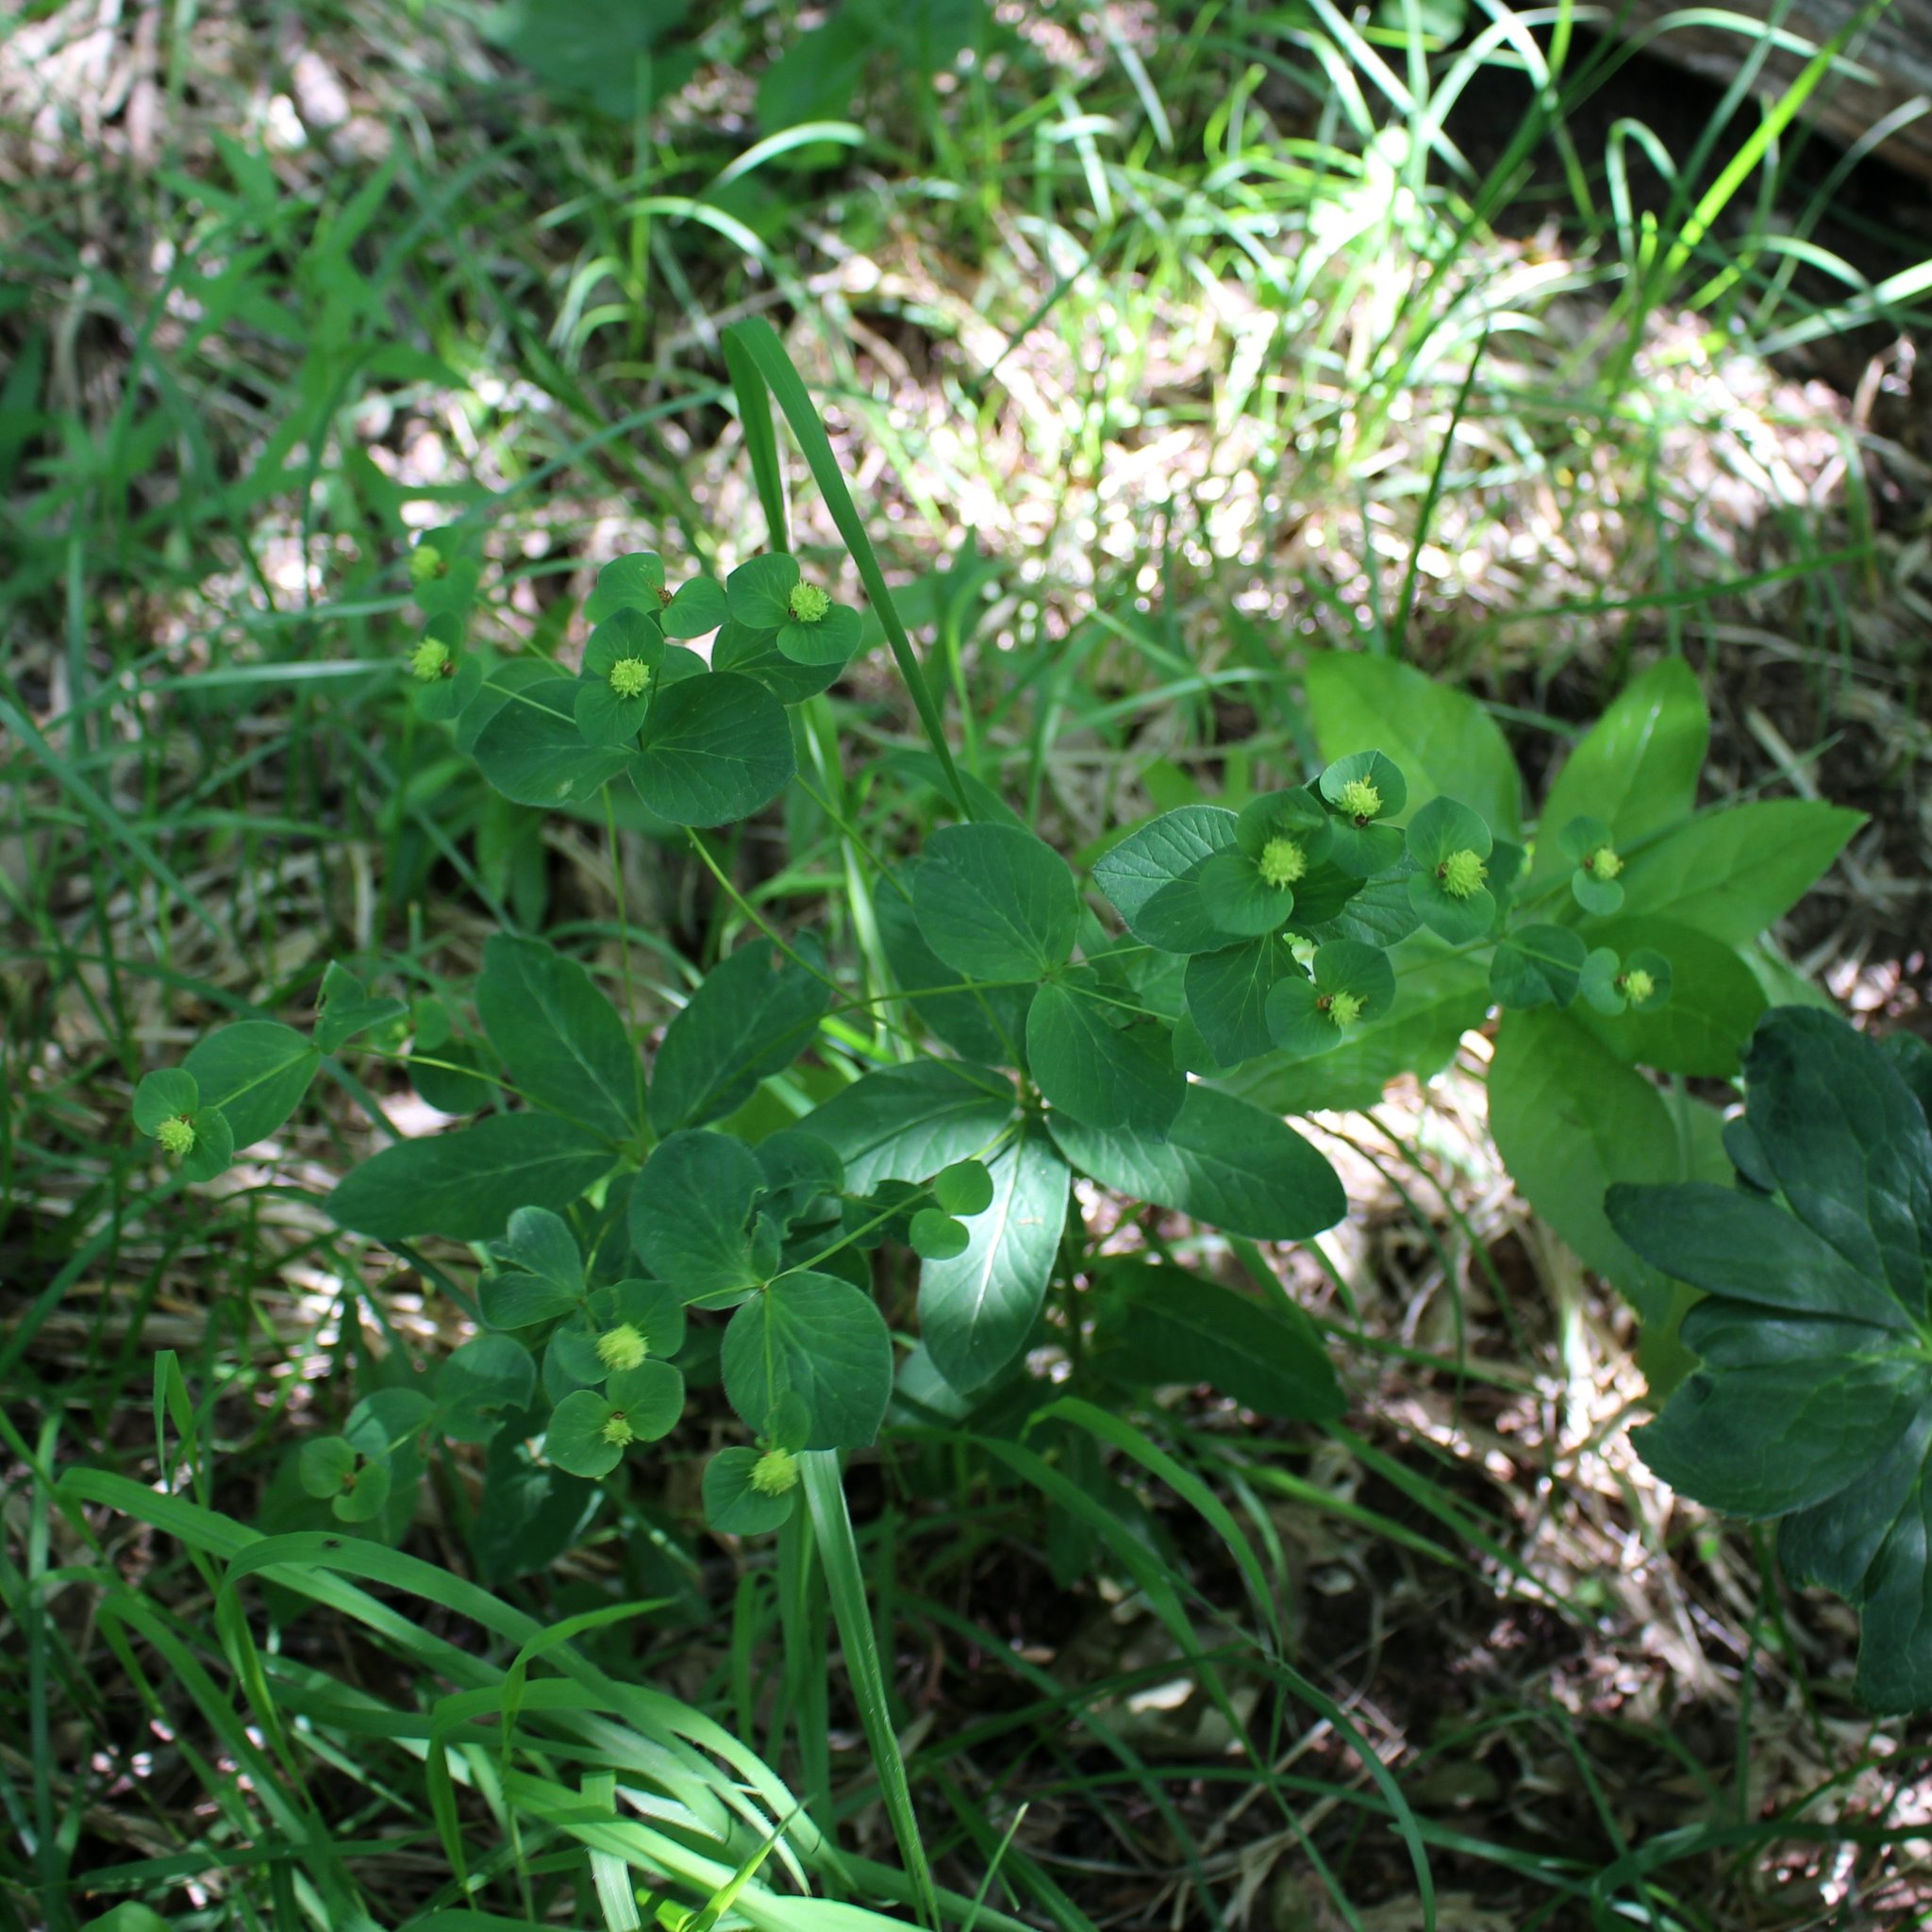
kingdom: Plantae
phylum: Tracheophyta
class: Magnoliopsida
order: Malpighiales
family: Euphorbiaceae
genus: Euphorbia
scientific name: Euphorbia squamosa
